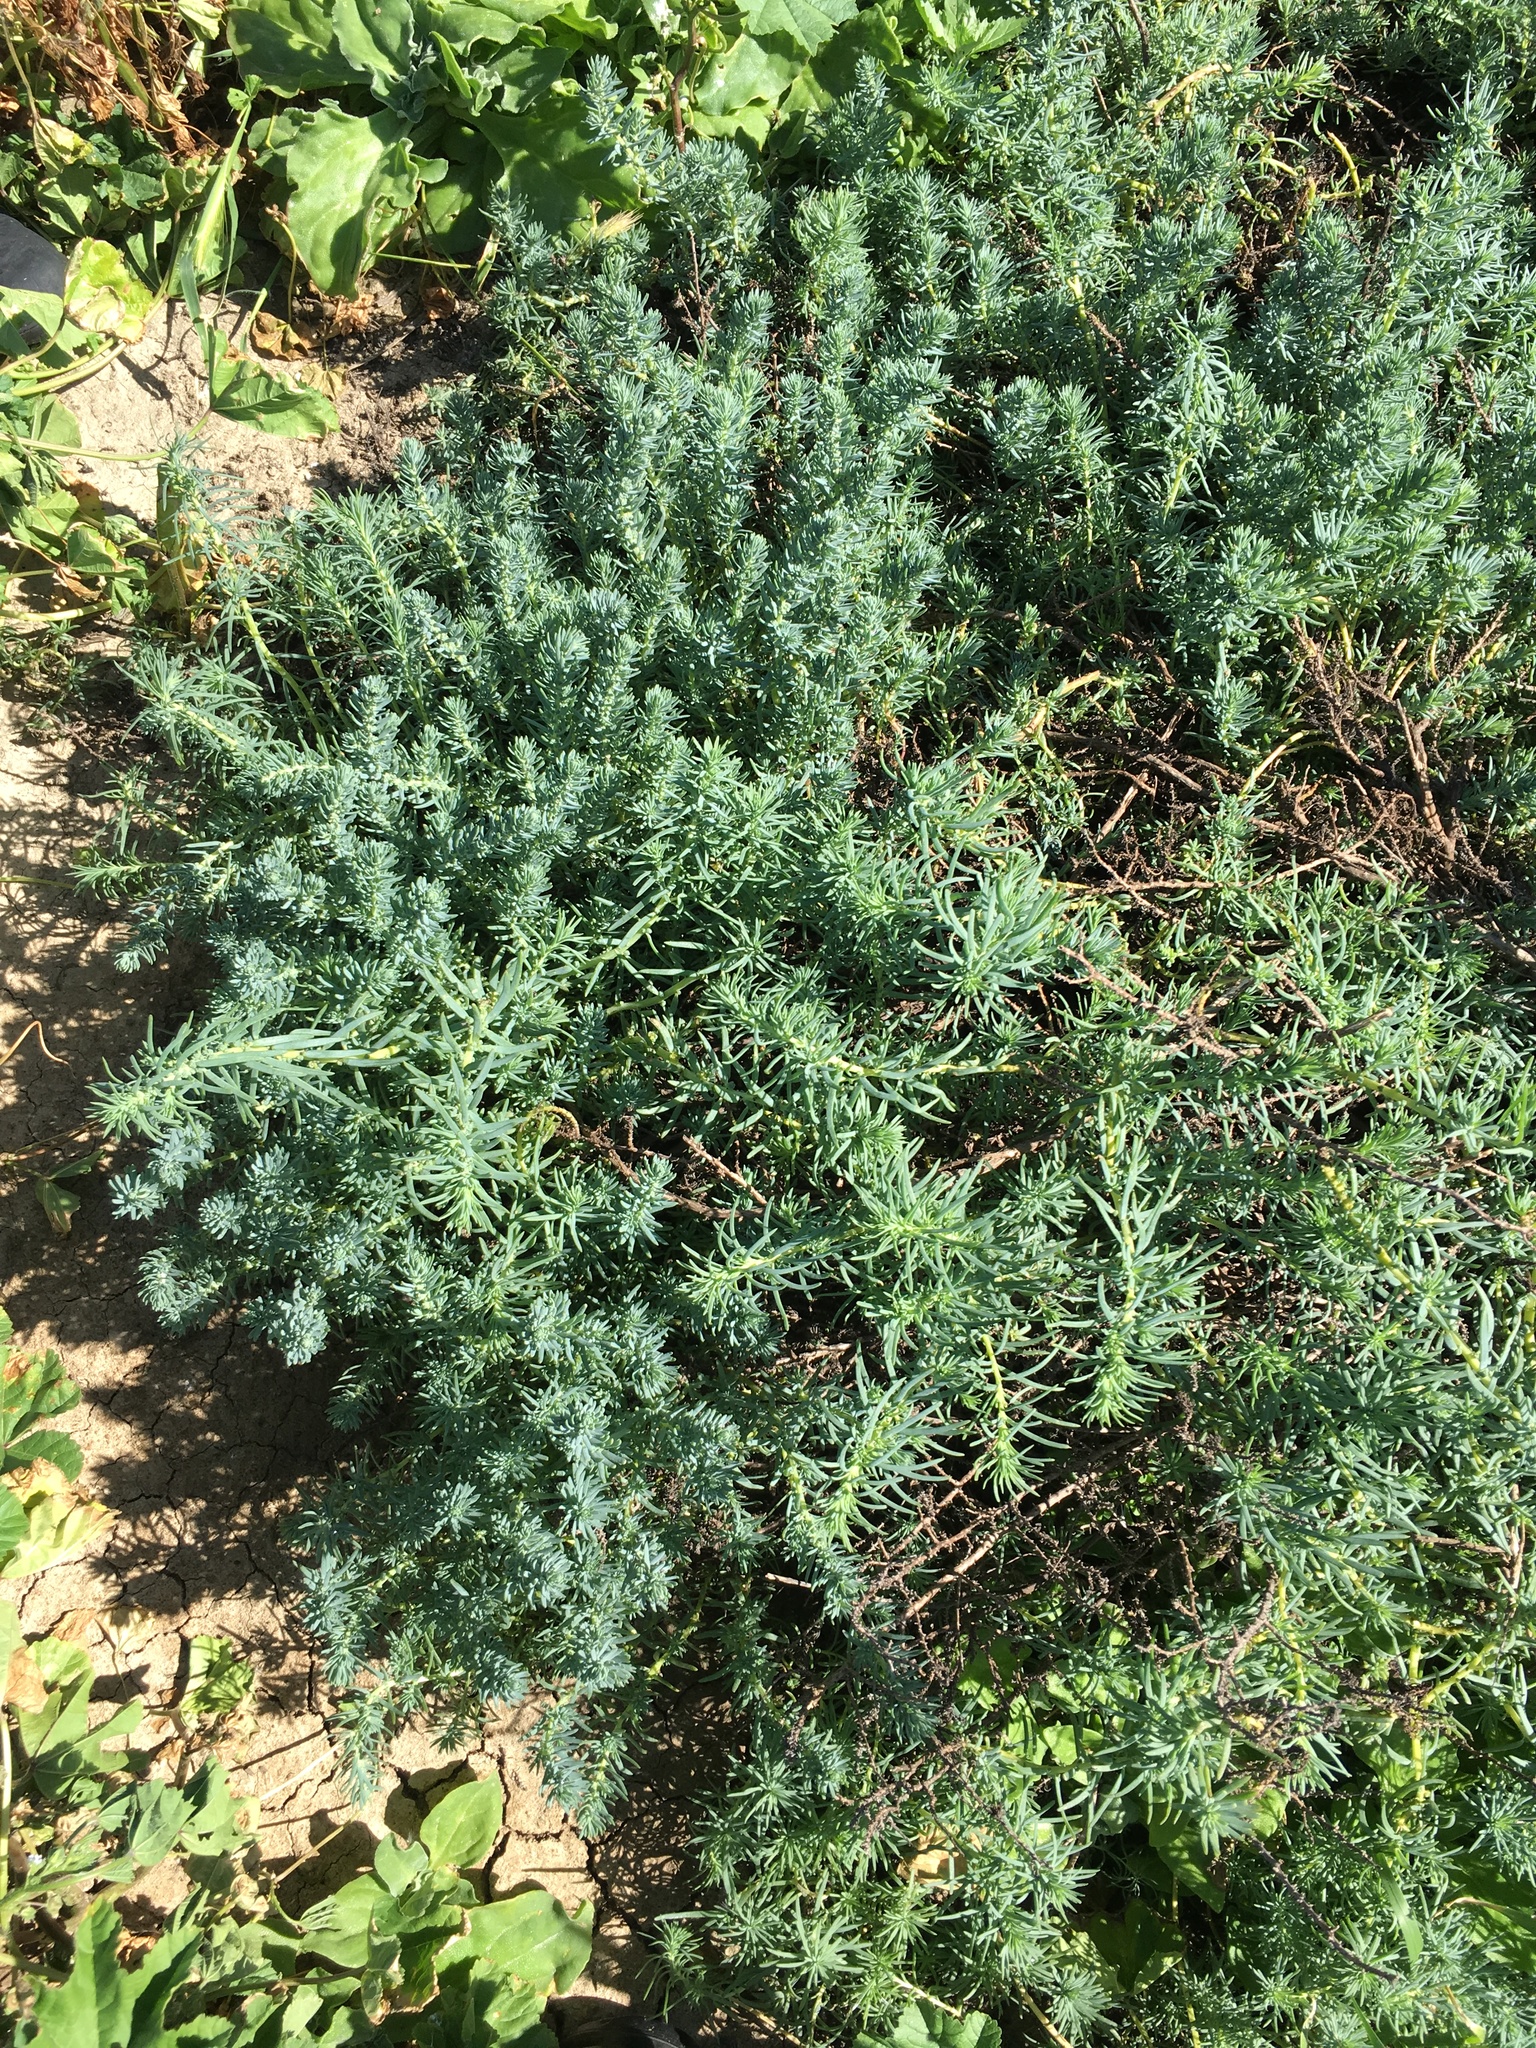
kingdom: Plantae
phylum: Tracheophyta
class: Magnoliopsida
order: Caryophyllales
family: Amaranthaceae
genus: Suaeda
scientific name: Suaeda taxifolia
